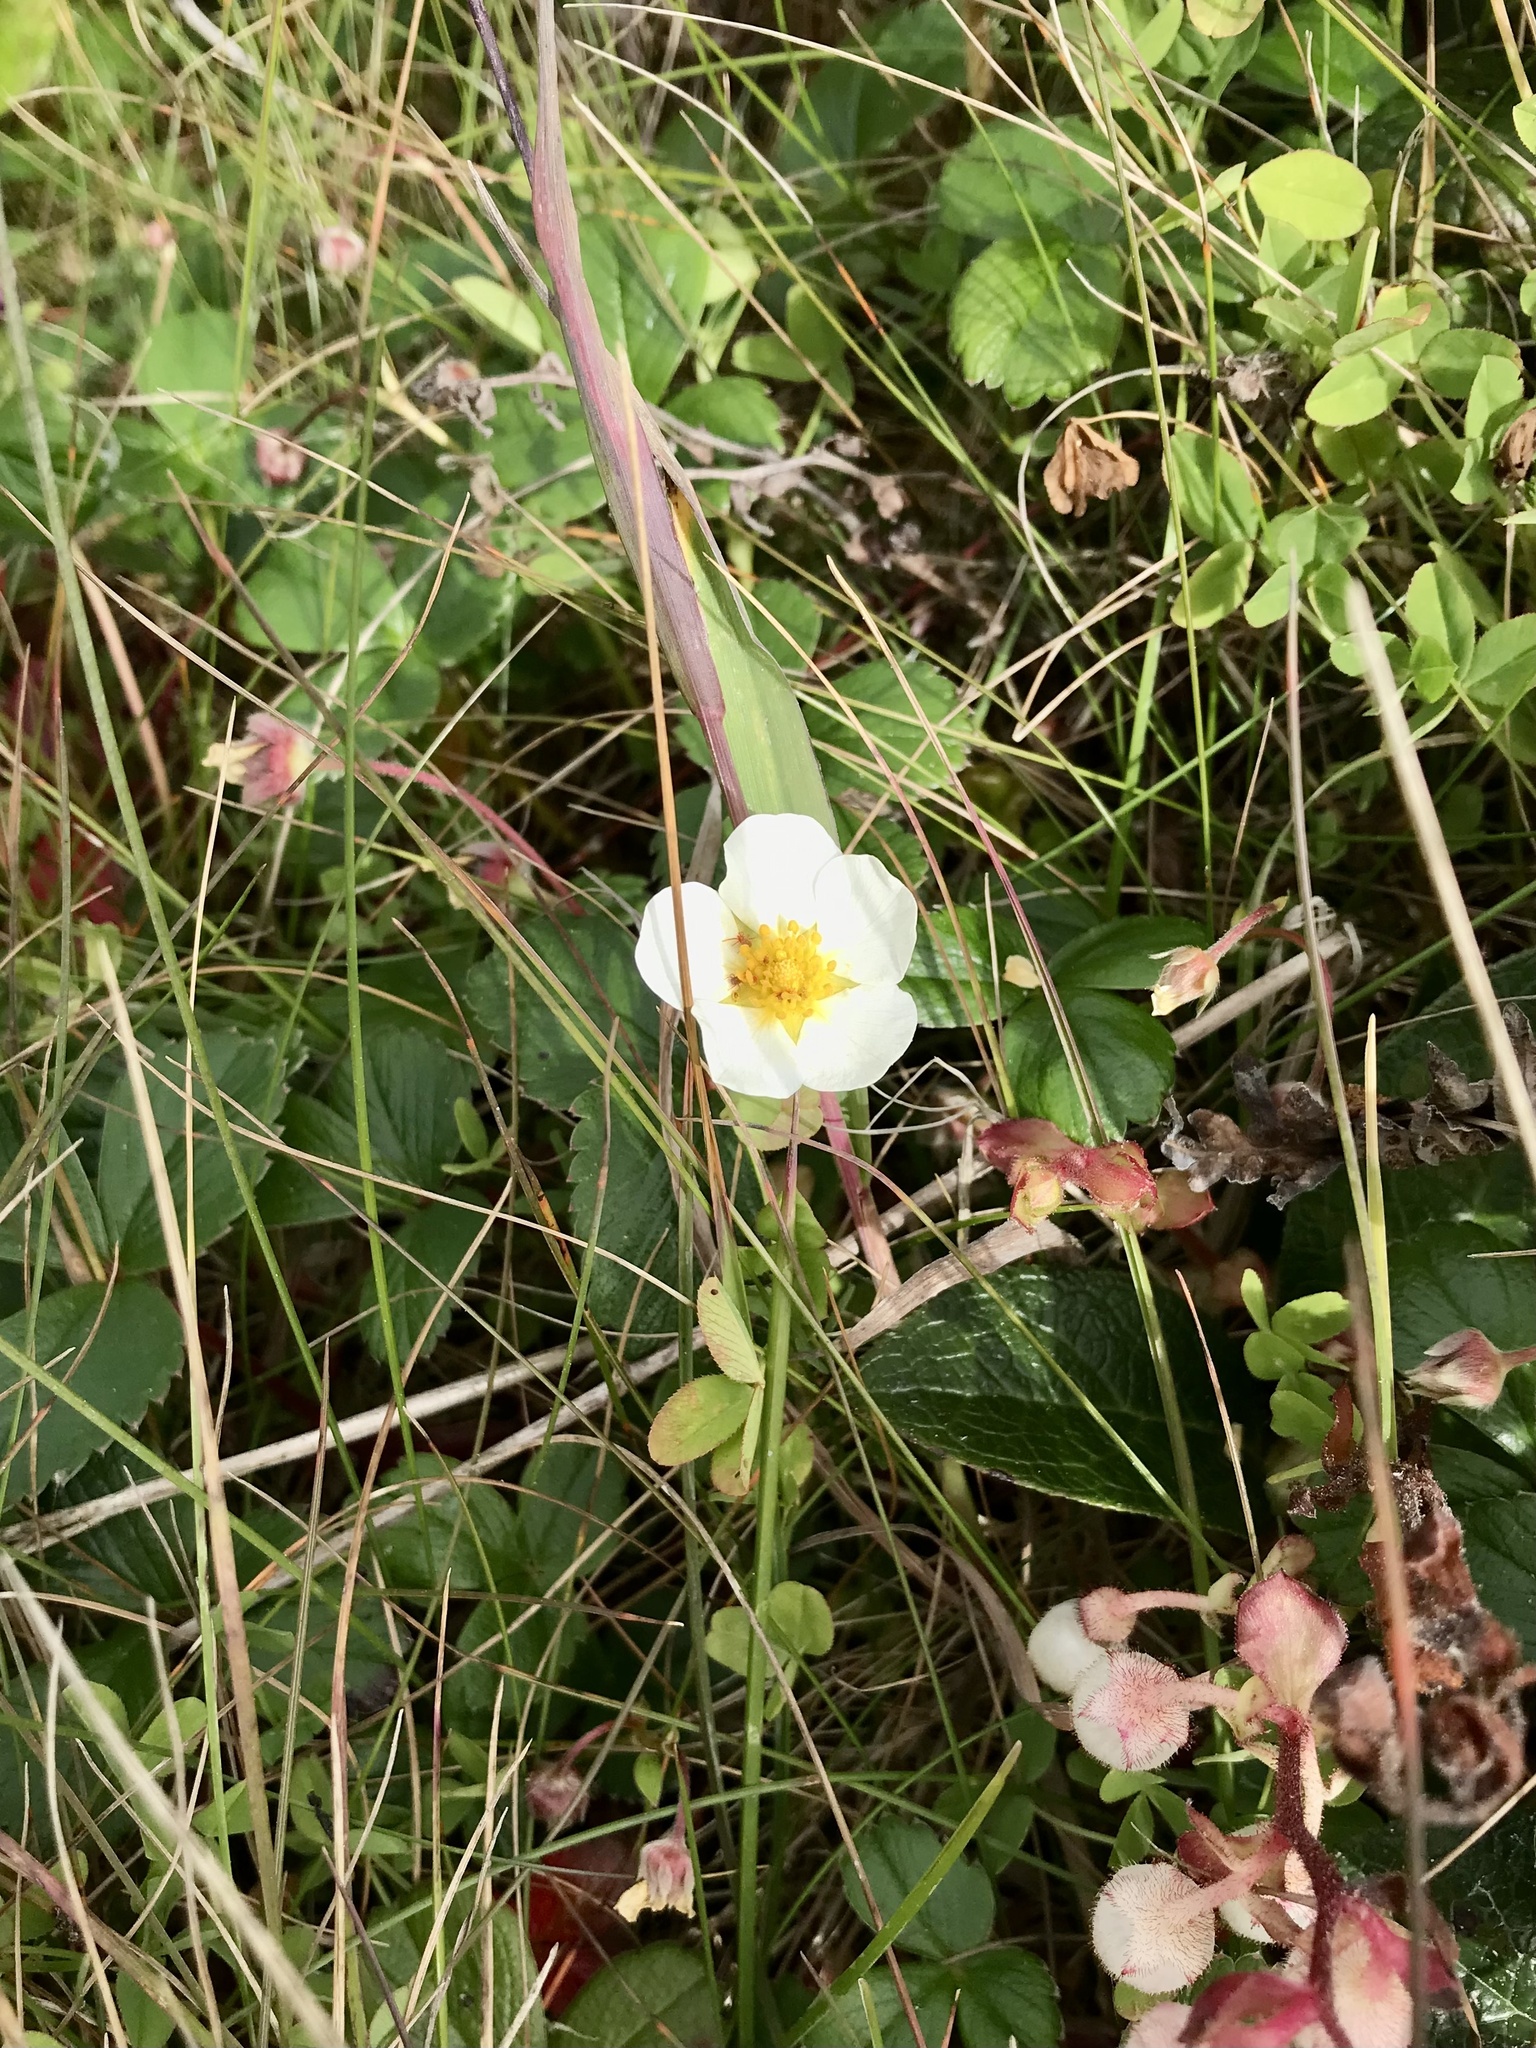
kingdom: Plantae
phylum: Tracheophyta
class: Magnoliopsida
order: Rosales
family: Rosaceae
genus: Fragaria
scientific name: Fragaria chiloensis
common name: Beach strawberry
